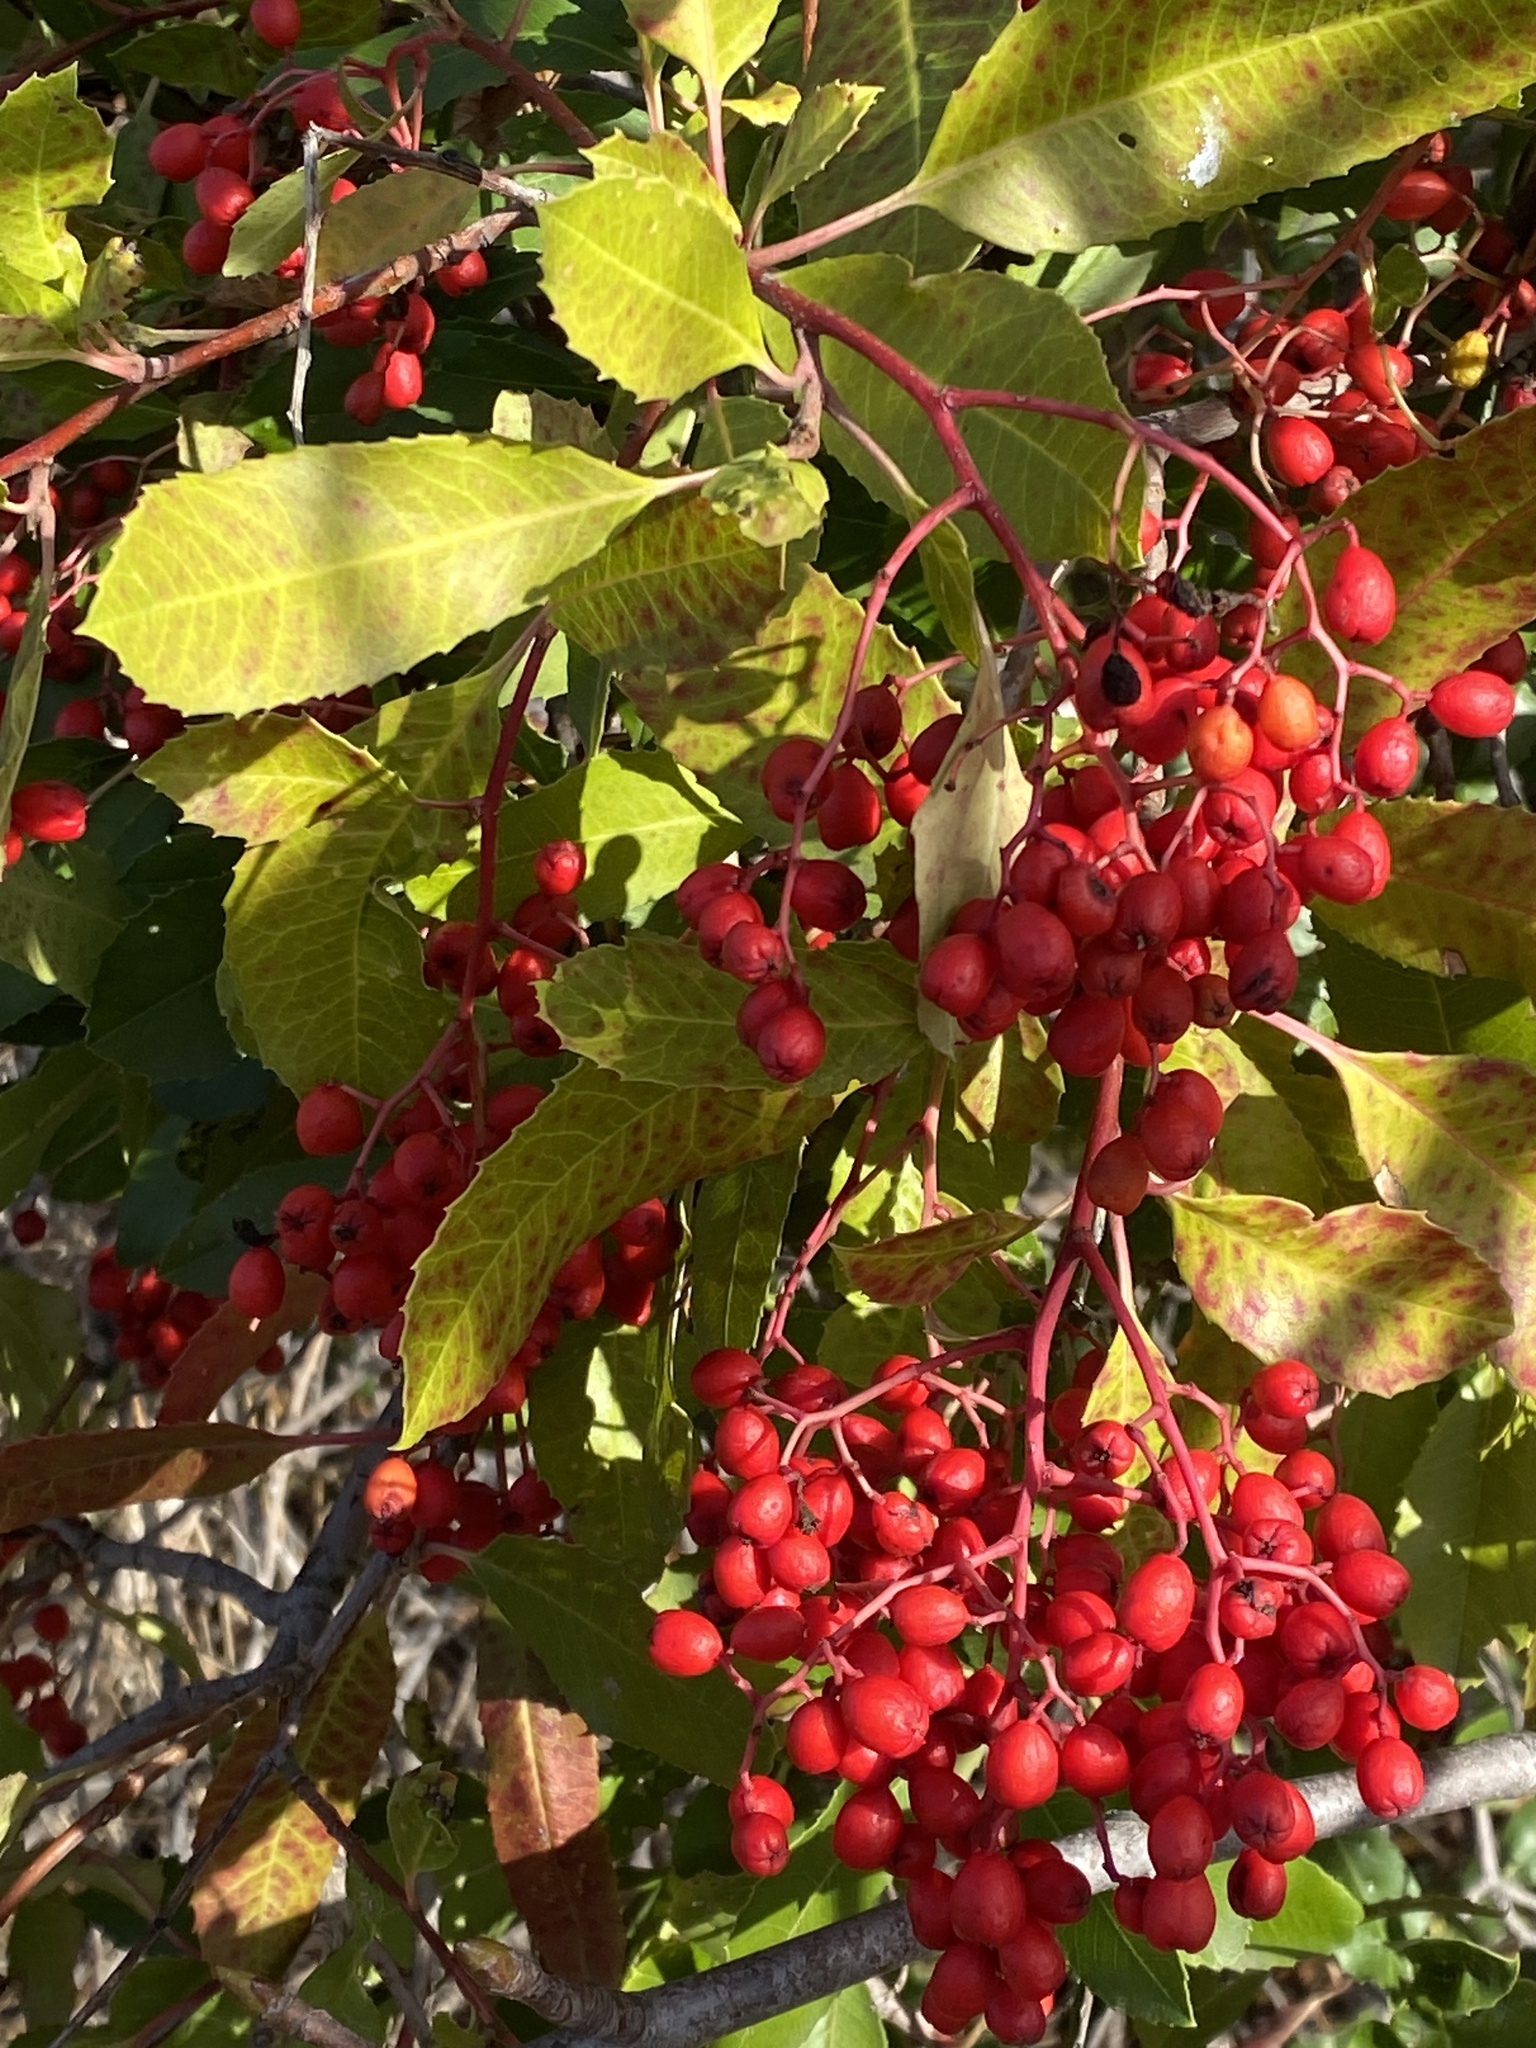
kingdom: Plantae
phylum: Tracheophyta
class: Magnoliopsida
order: Rosales
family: Rosaceae
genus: Heteromeles
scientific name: Heteromeles arbutifolia
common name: California-holly
